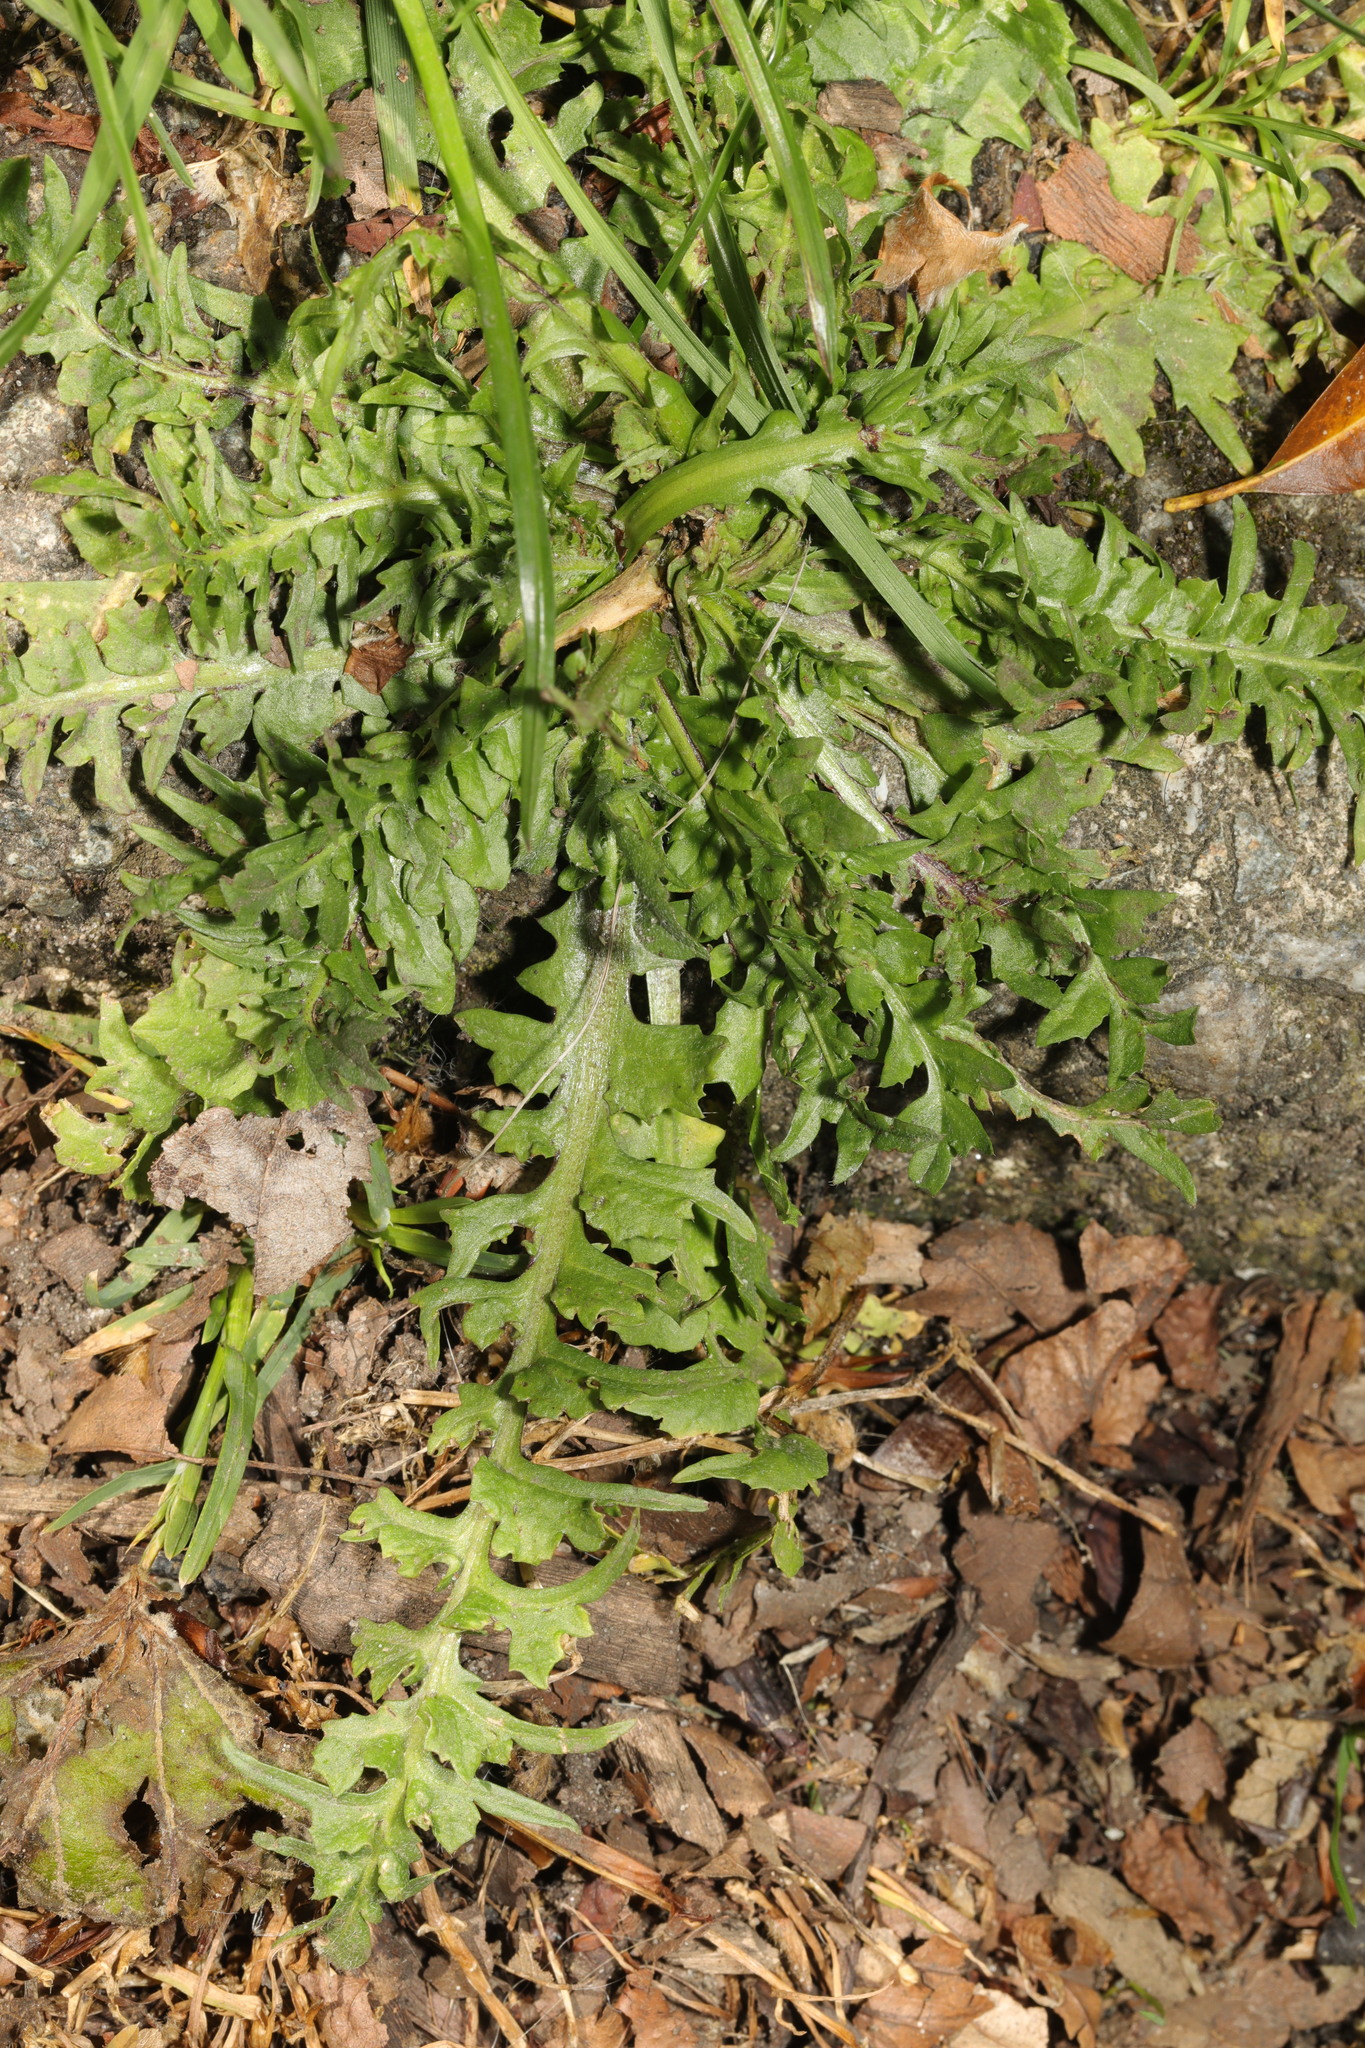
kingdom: Plantae
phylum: Tracheophyta
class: Magnoliopsida
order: Brassicales
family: Brassicaceae
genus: Capsella
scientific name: Capsella bursa-pastoris
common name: Shepherd's purse
